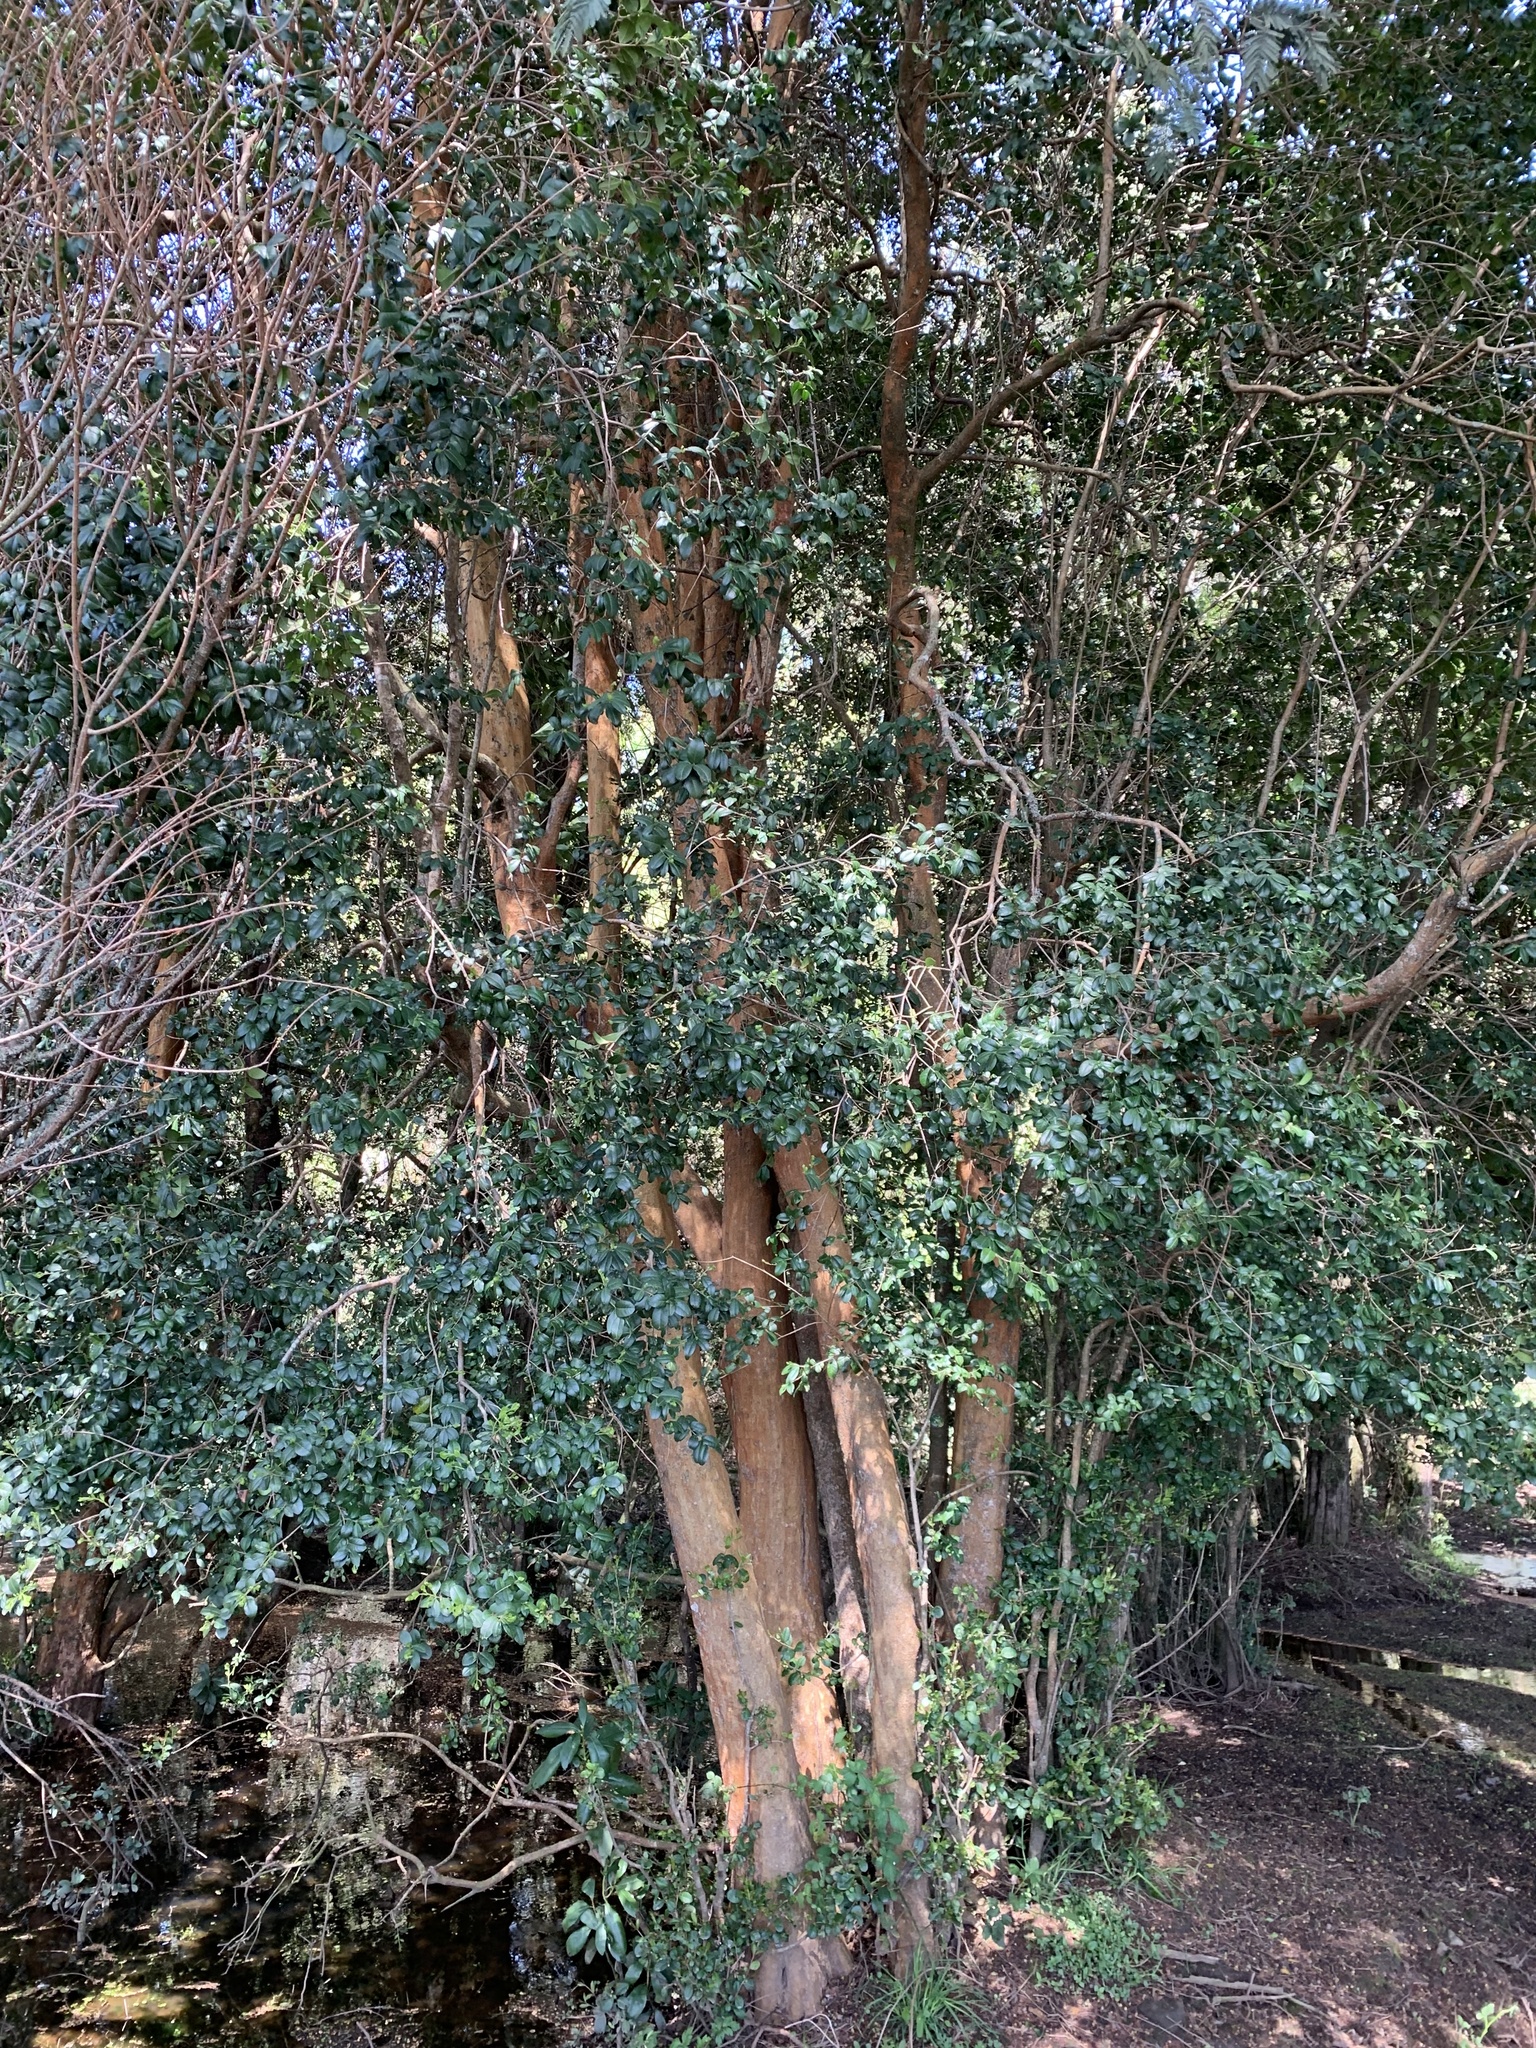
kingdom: Plantae
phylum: Tracheophyta
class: Magnoliopsida
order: Myrtales
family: Myrtaceae
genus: Blepharocalyx
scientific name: Blepharocalyx cruckshanksii
